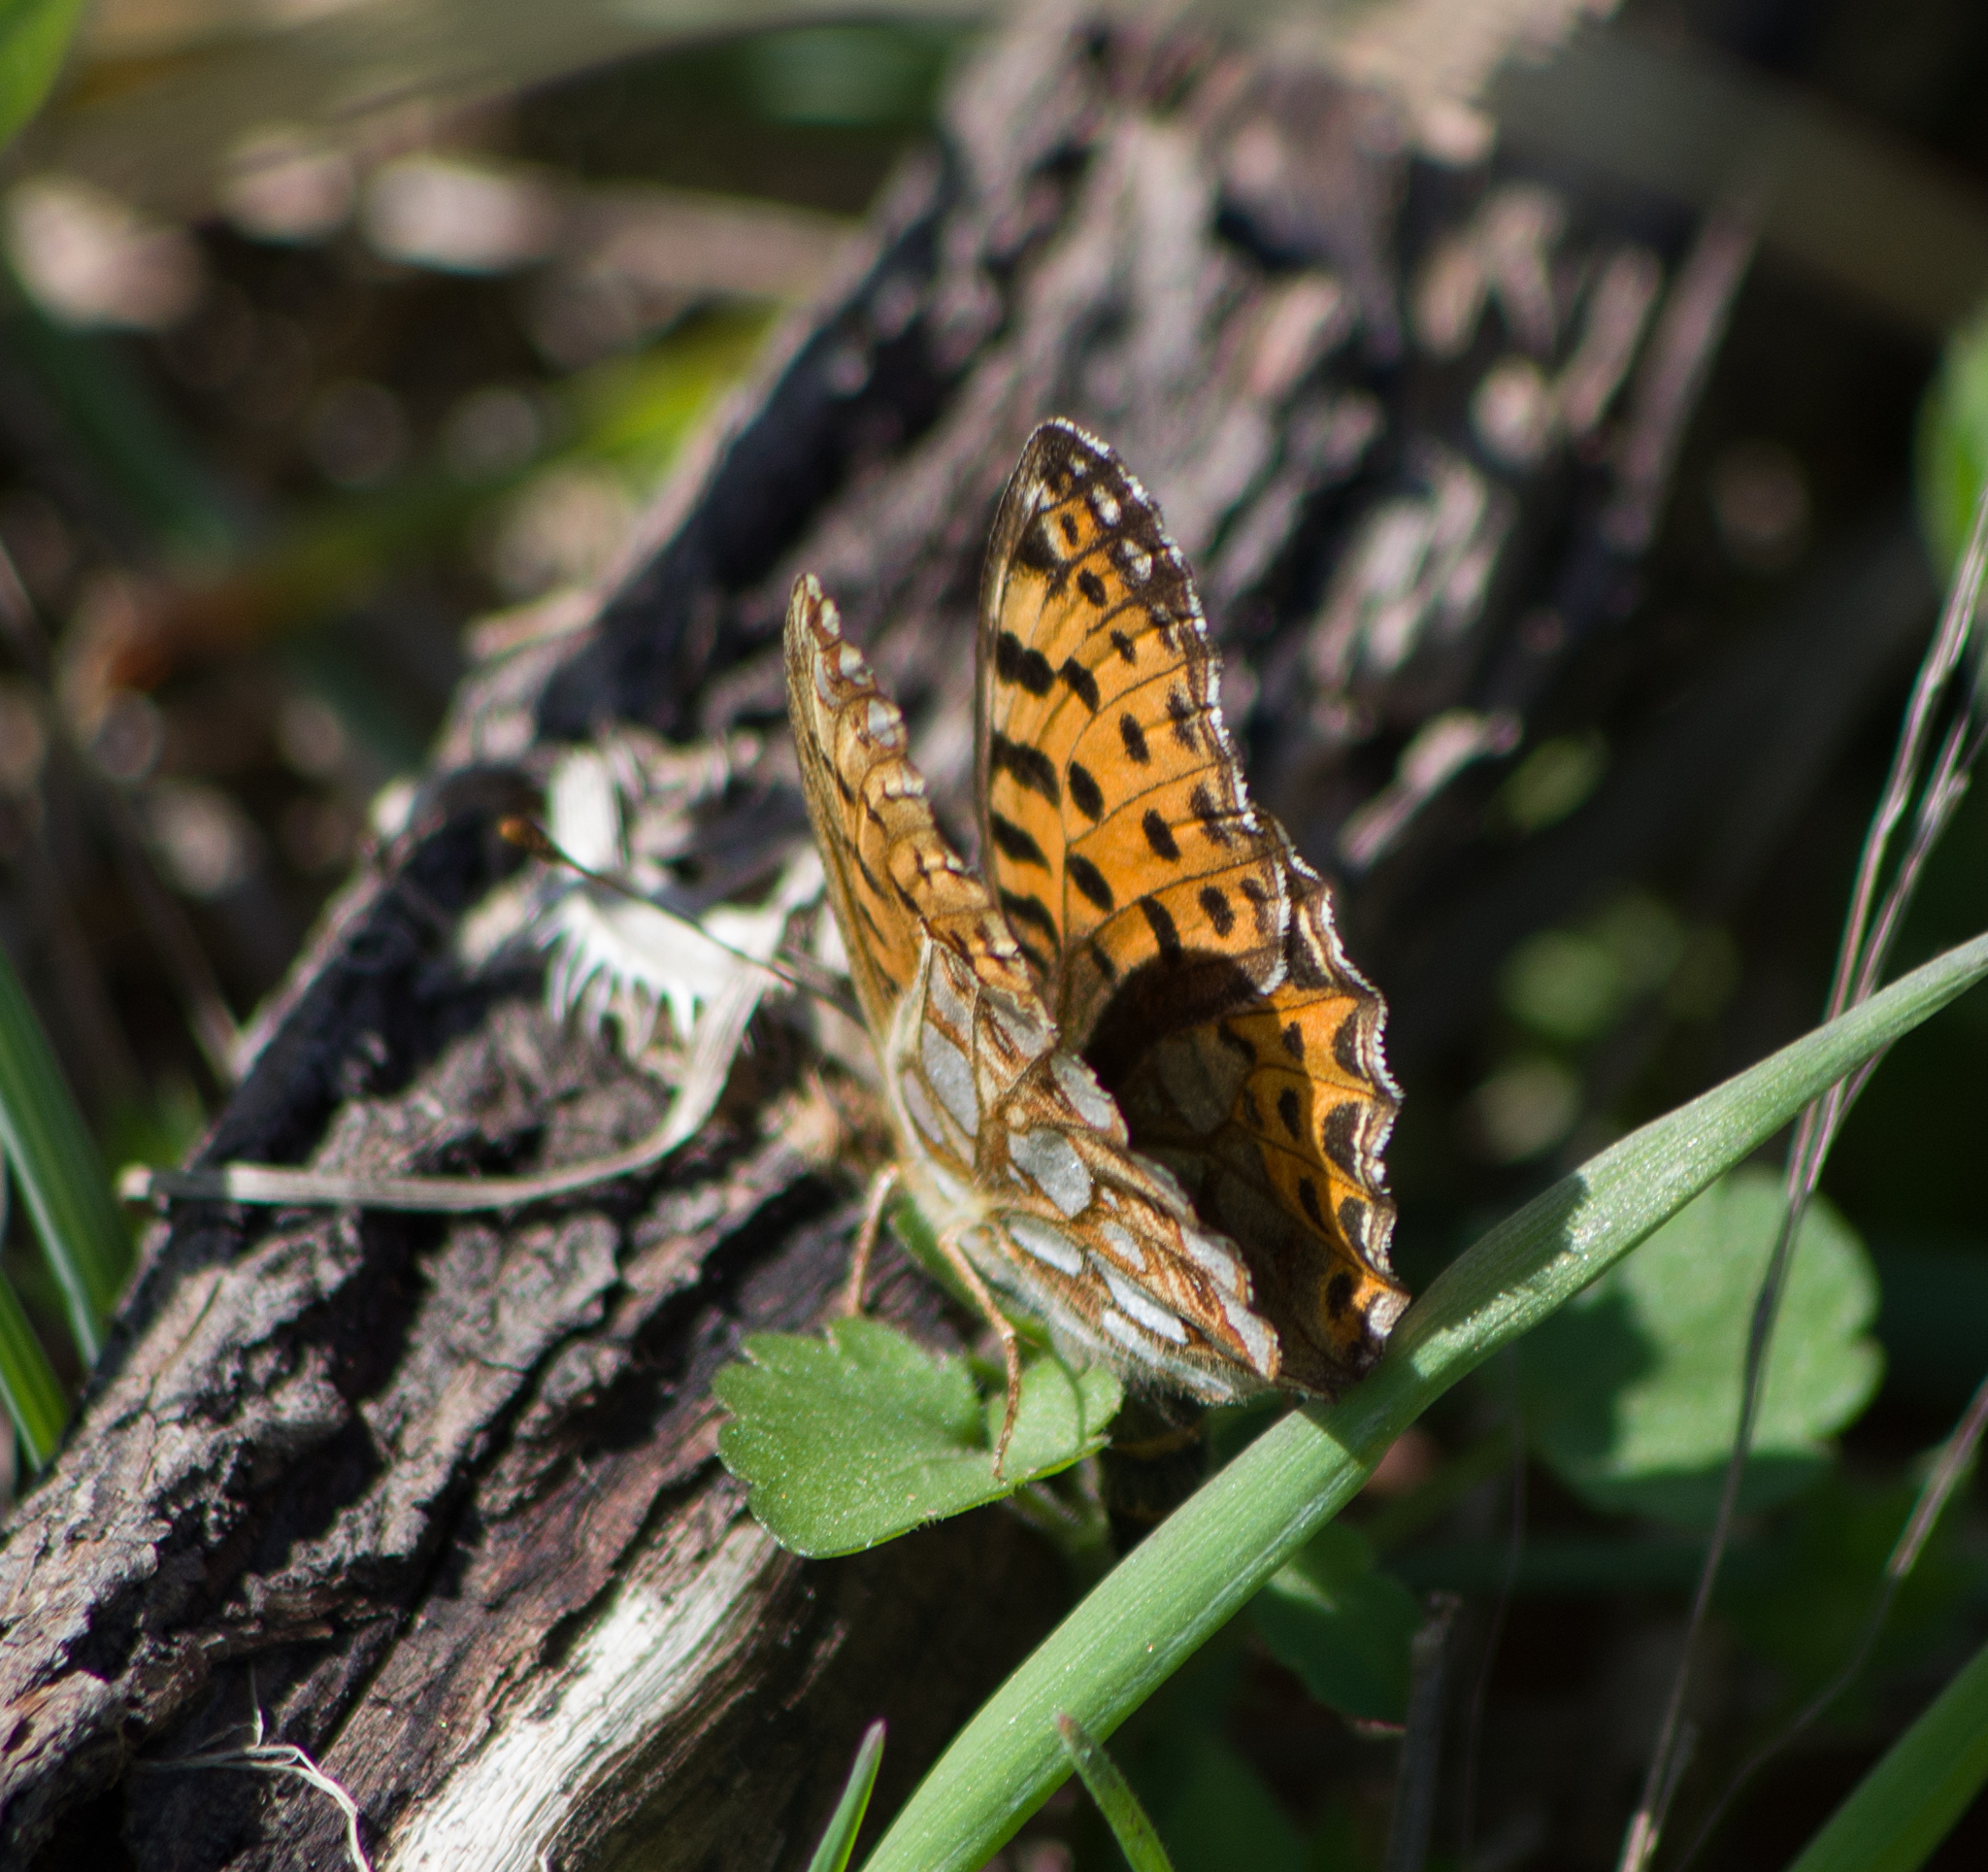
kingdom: Animalia
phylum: Arthropoda
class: Insecta
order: Lepidoptera
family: Nymphalidae
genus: Issoria
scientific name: Issoria lathonia
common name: Queen of spain fritillary
